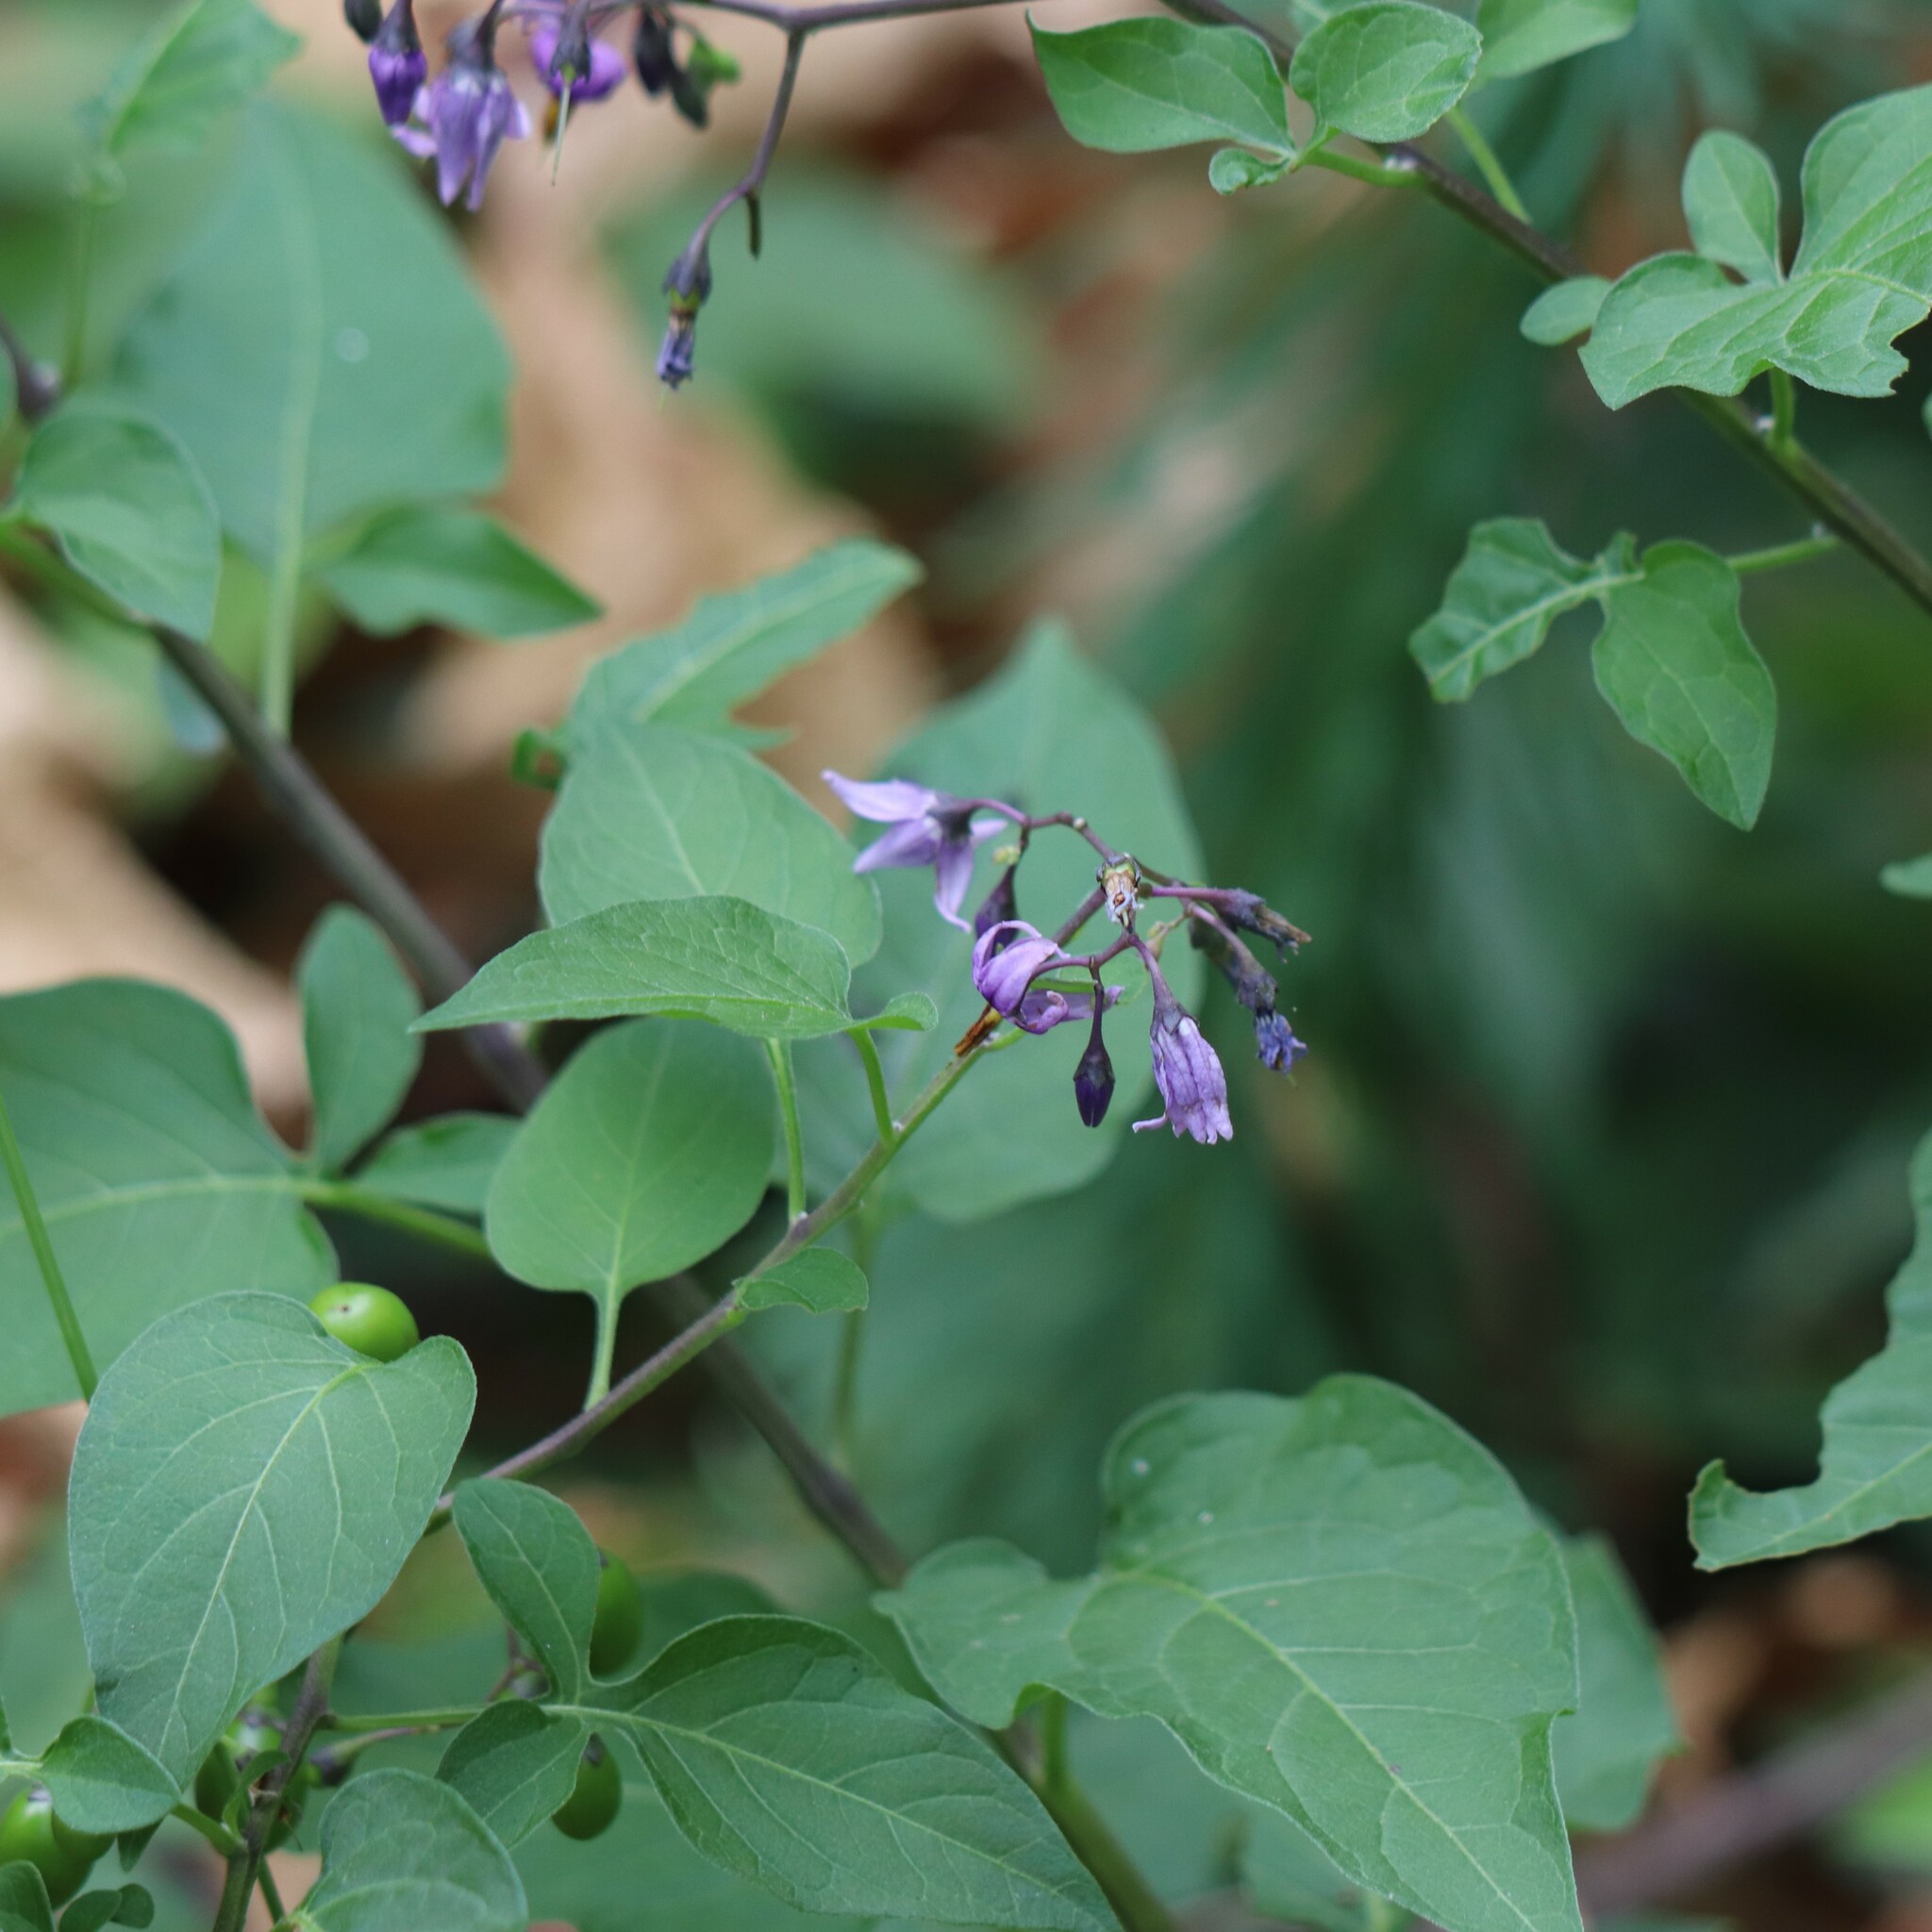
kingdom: Plantae
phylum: Tracheophyta
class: Magnoliopsida
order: Solanales
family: Solanaceae
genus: Solanum
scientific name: Solanum dulcamara
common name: Climbing nightshade
